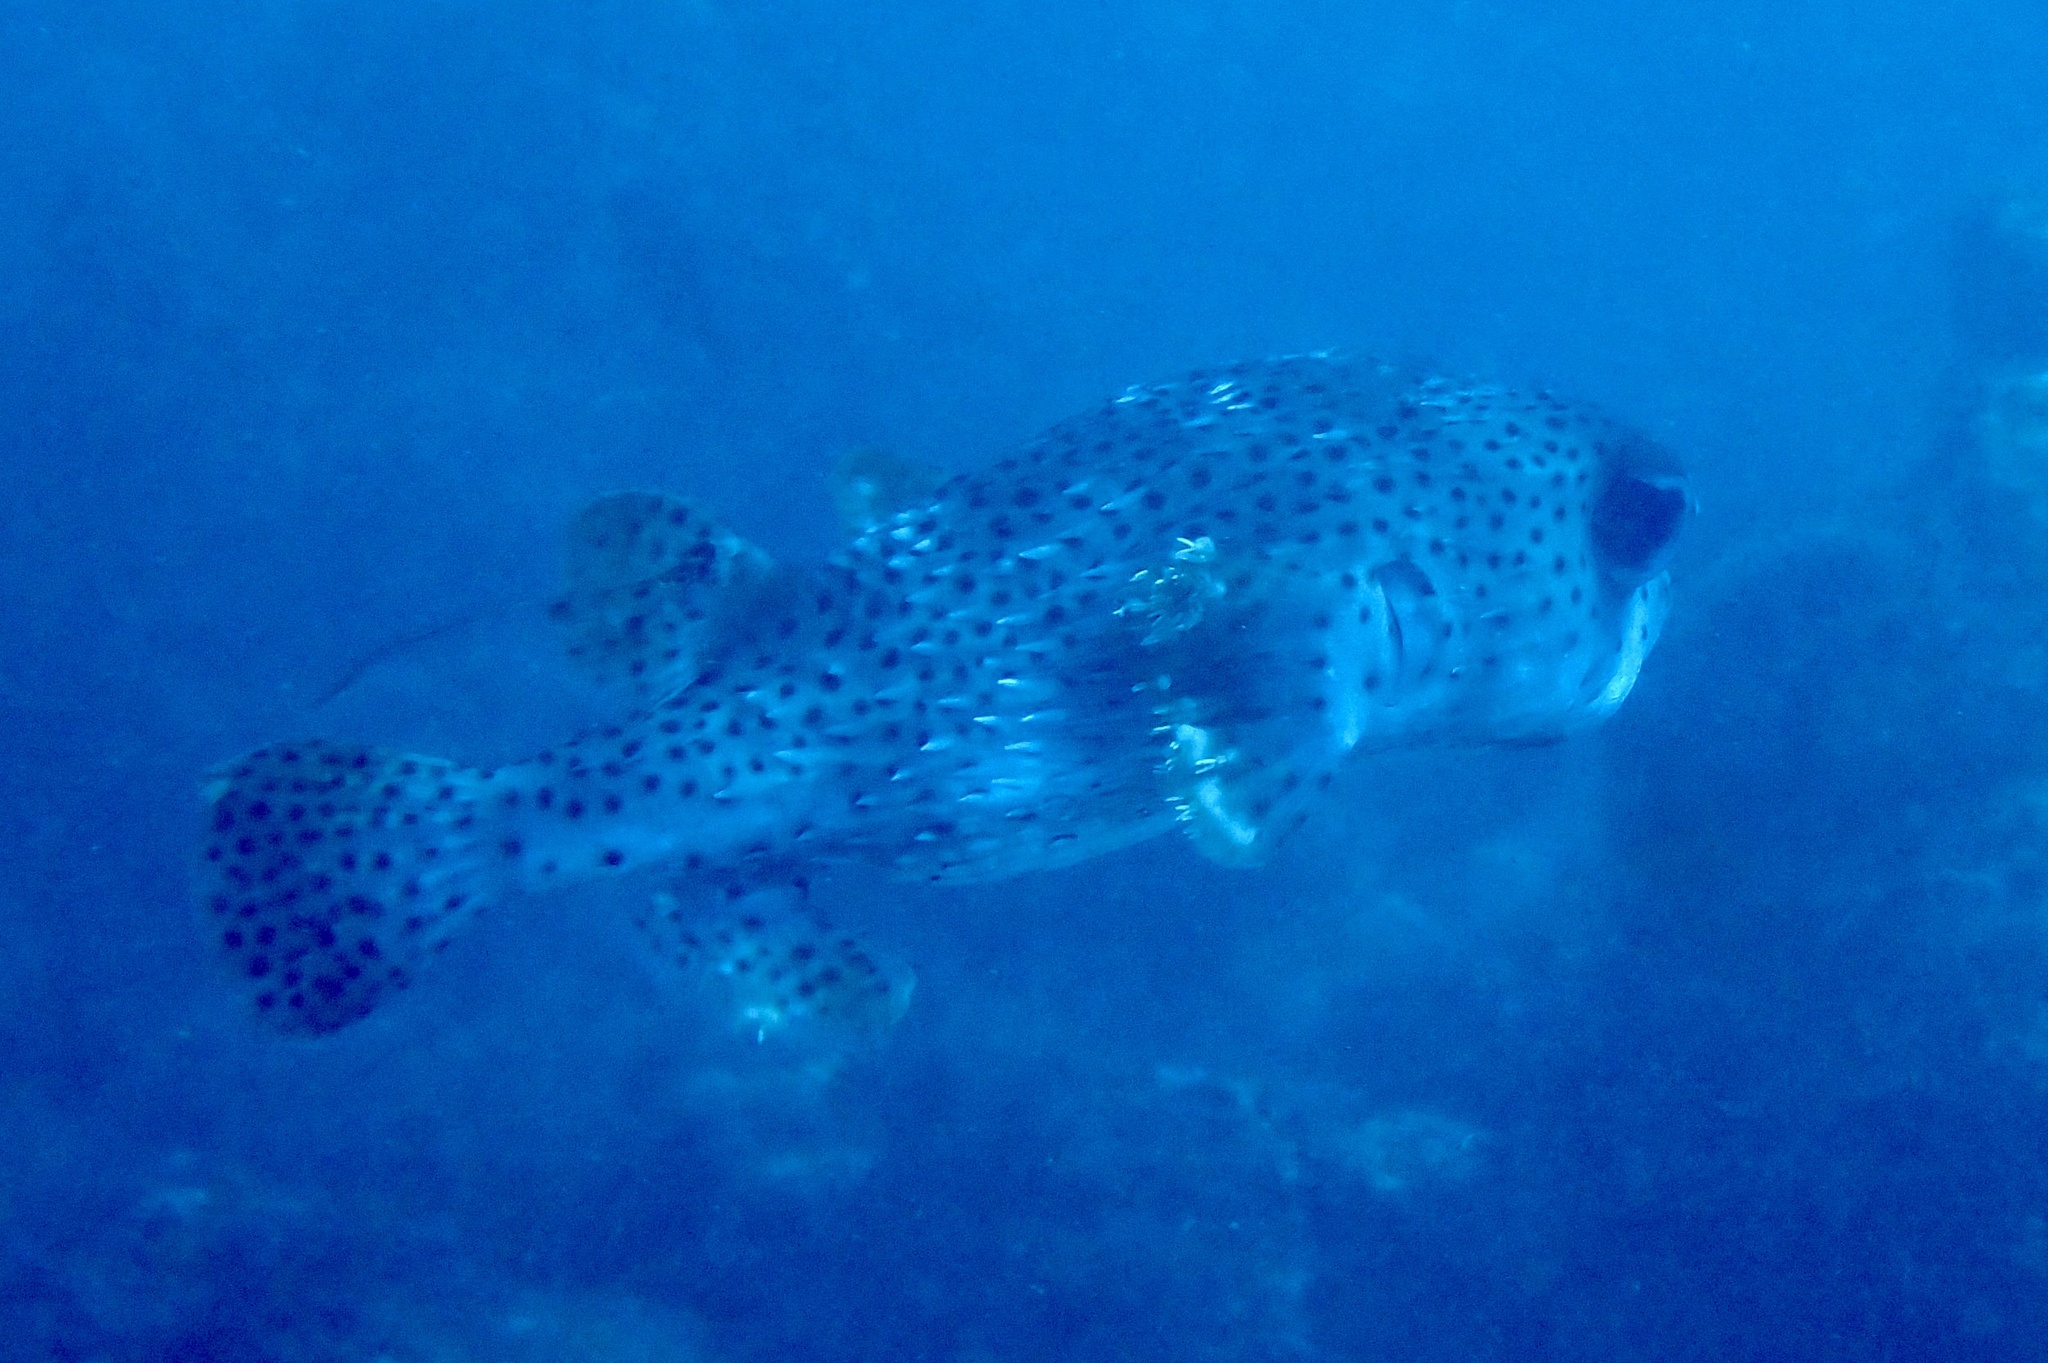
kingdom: Animalia
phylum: Chordata
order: Tetraodontiformes
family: Diodontidae
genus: Diodon
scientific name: Diodon hystrix
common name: Giant porcupinefish
